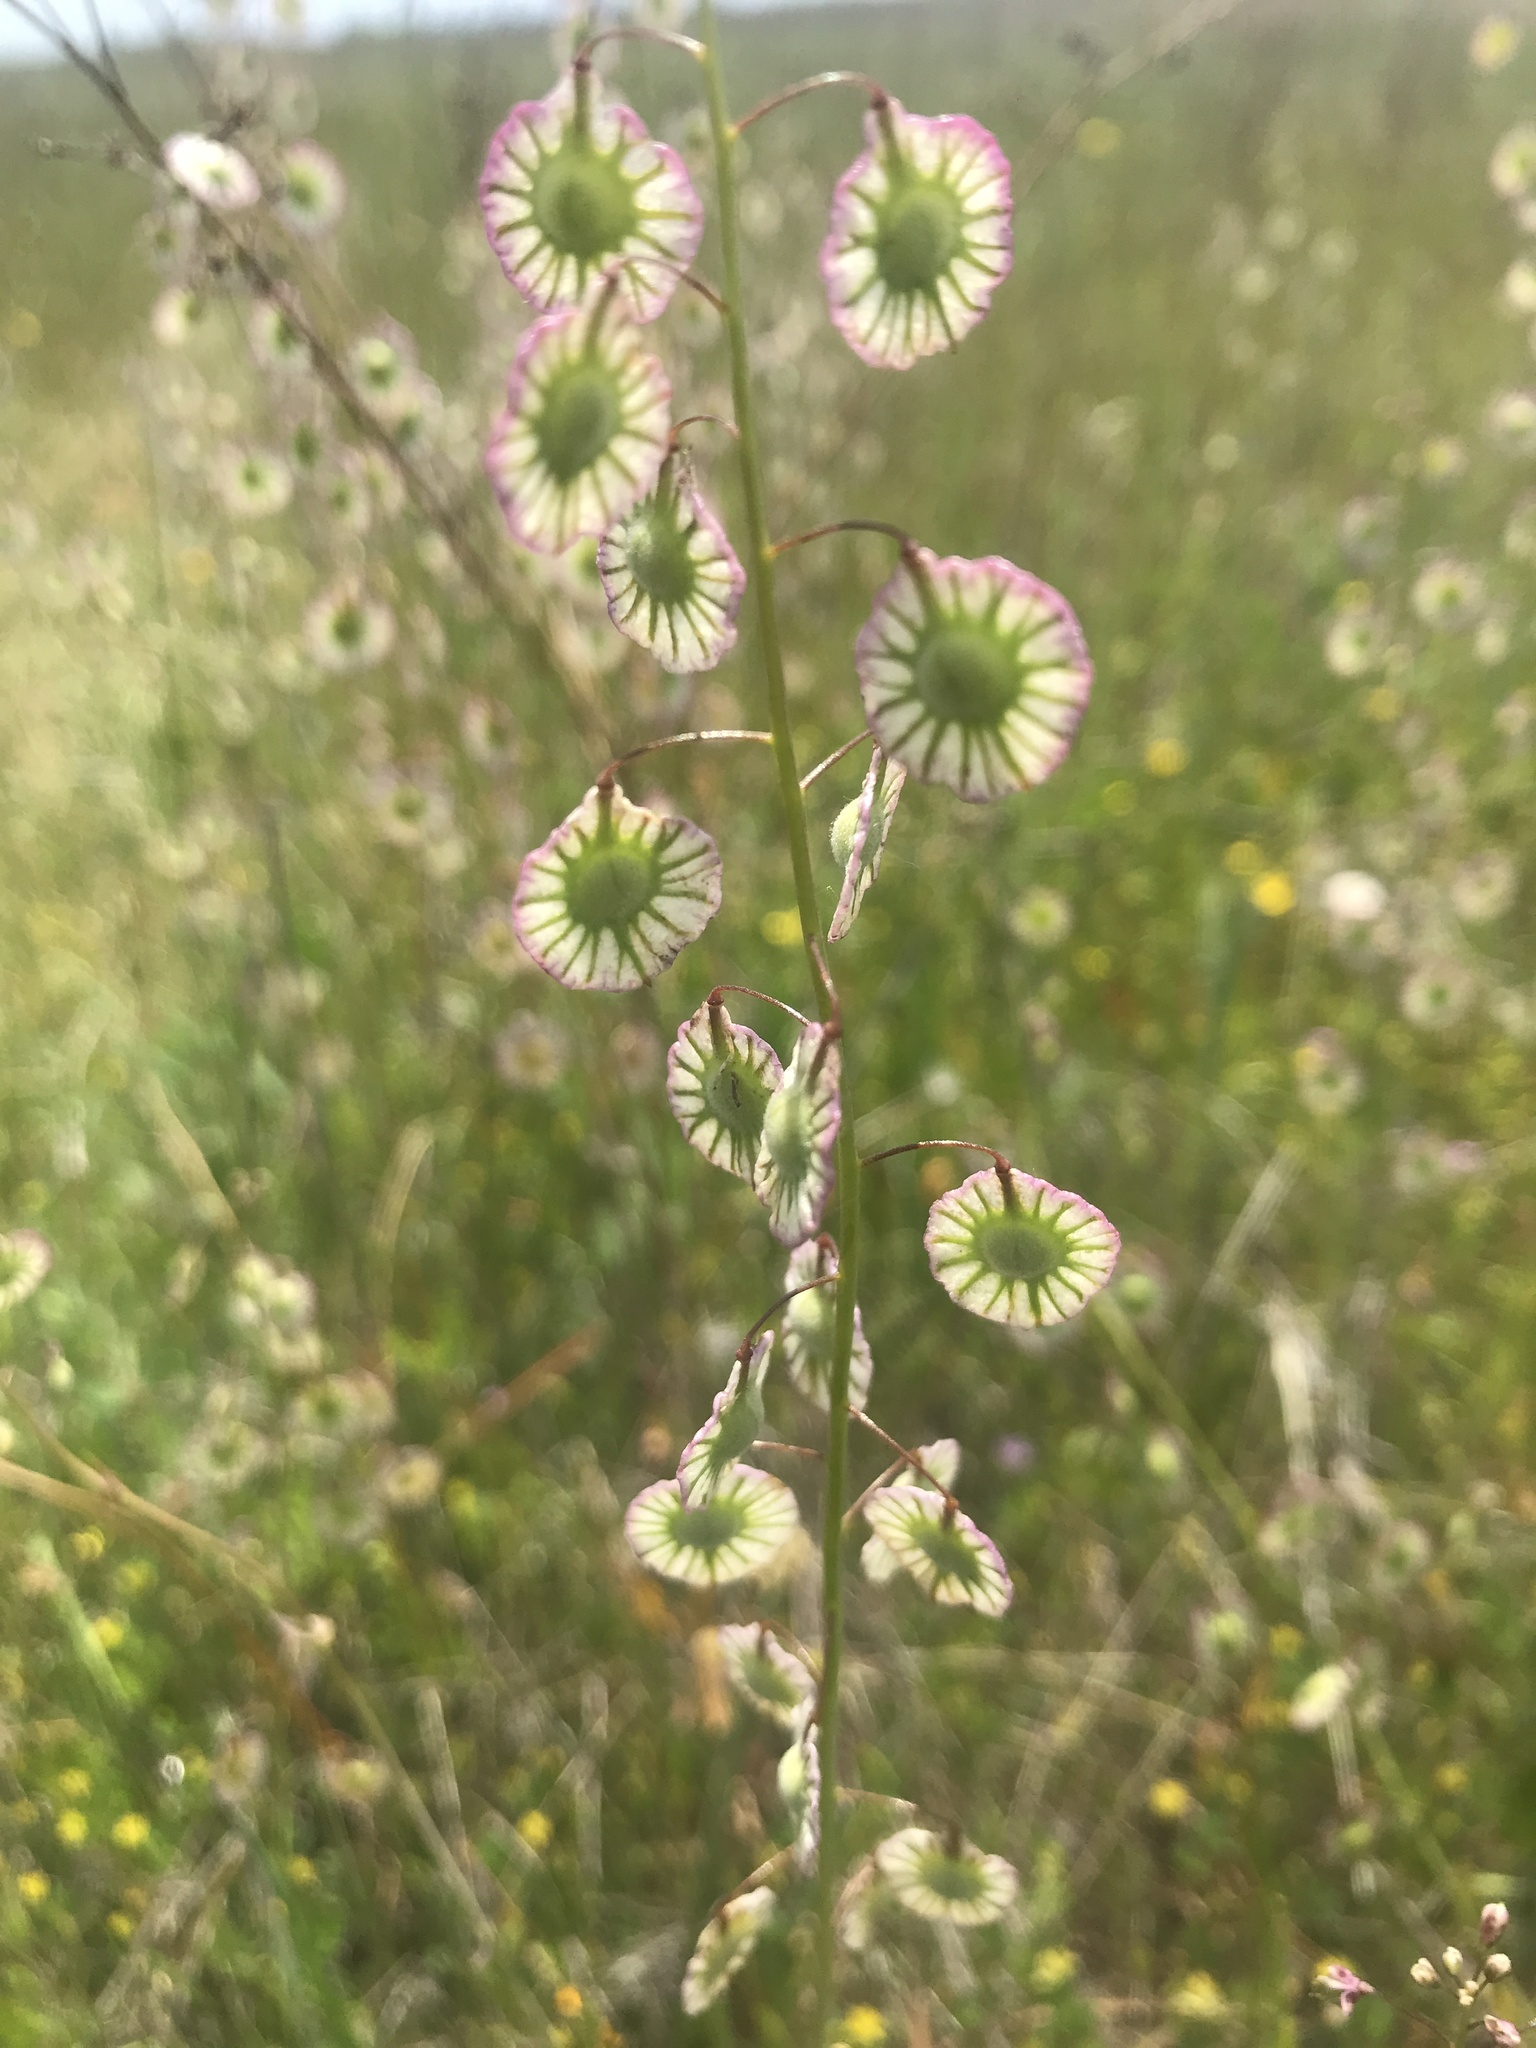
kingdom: Plantae
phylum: Tracheophyta
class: Magnoliopsida
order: Brassicales
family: Brassicaceae
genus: Thysanocarpus
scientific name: Thysanocarpus radians
